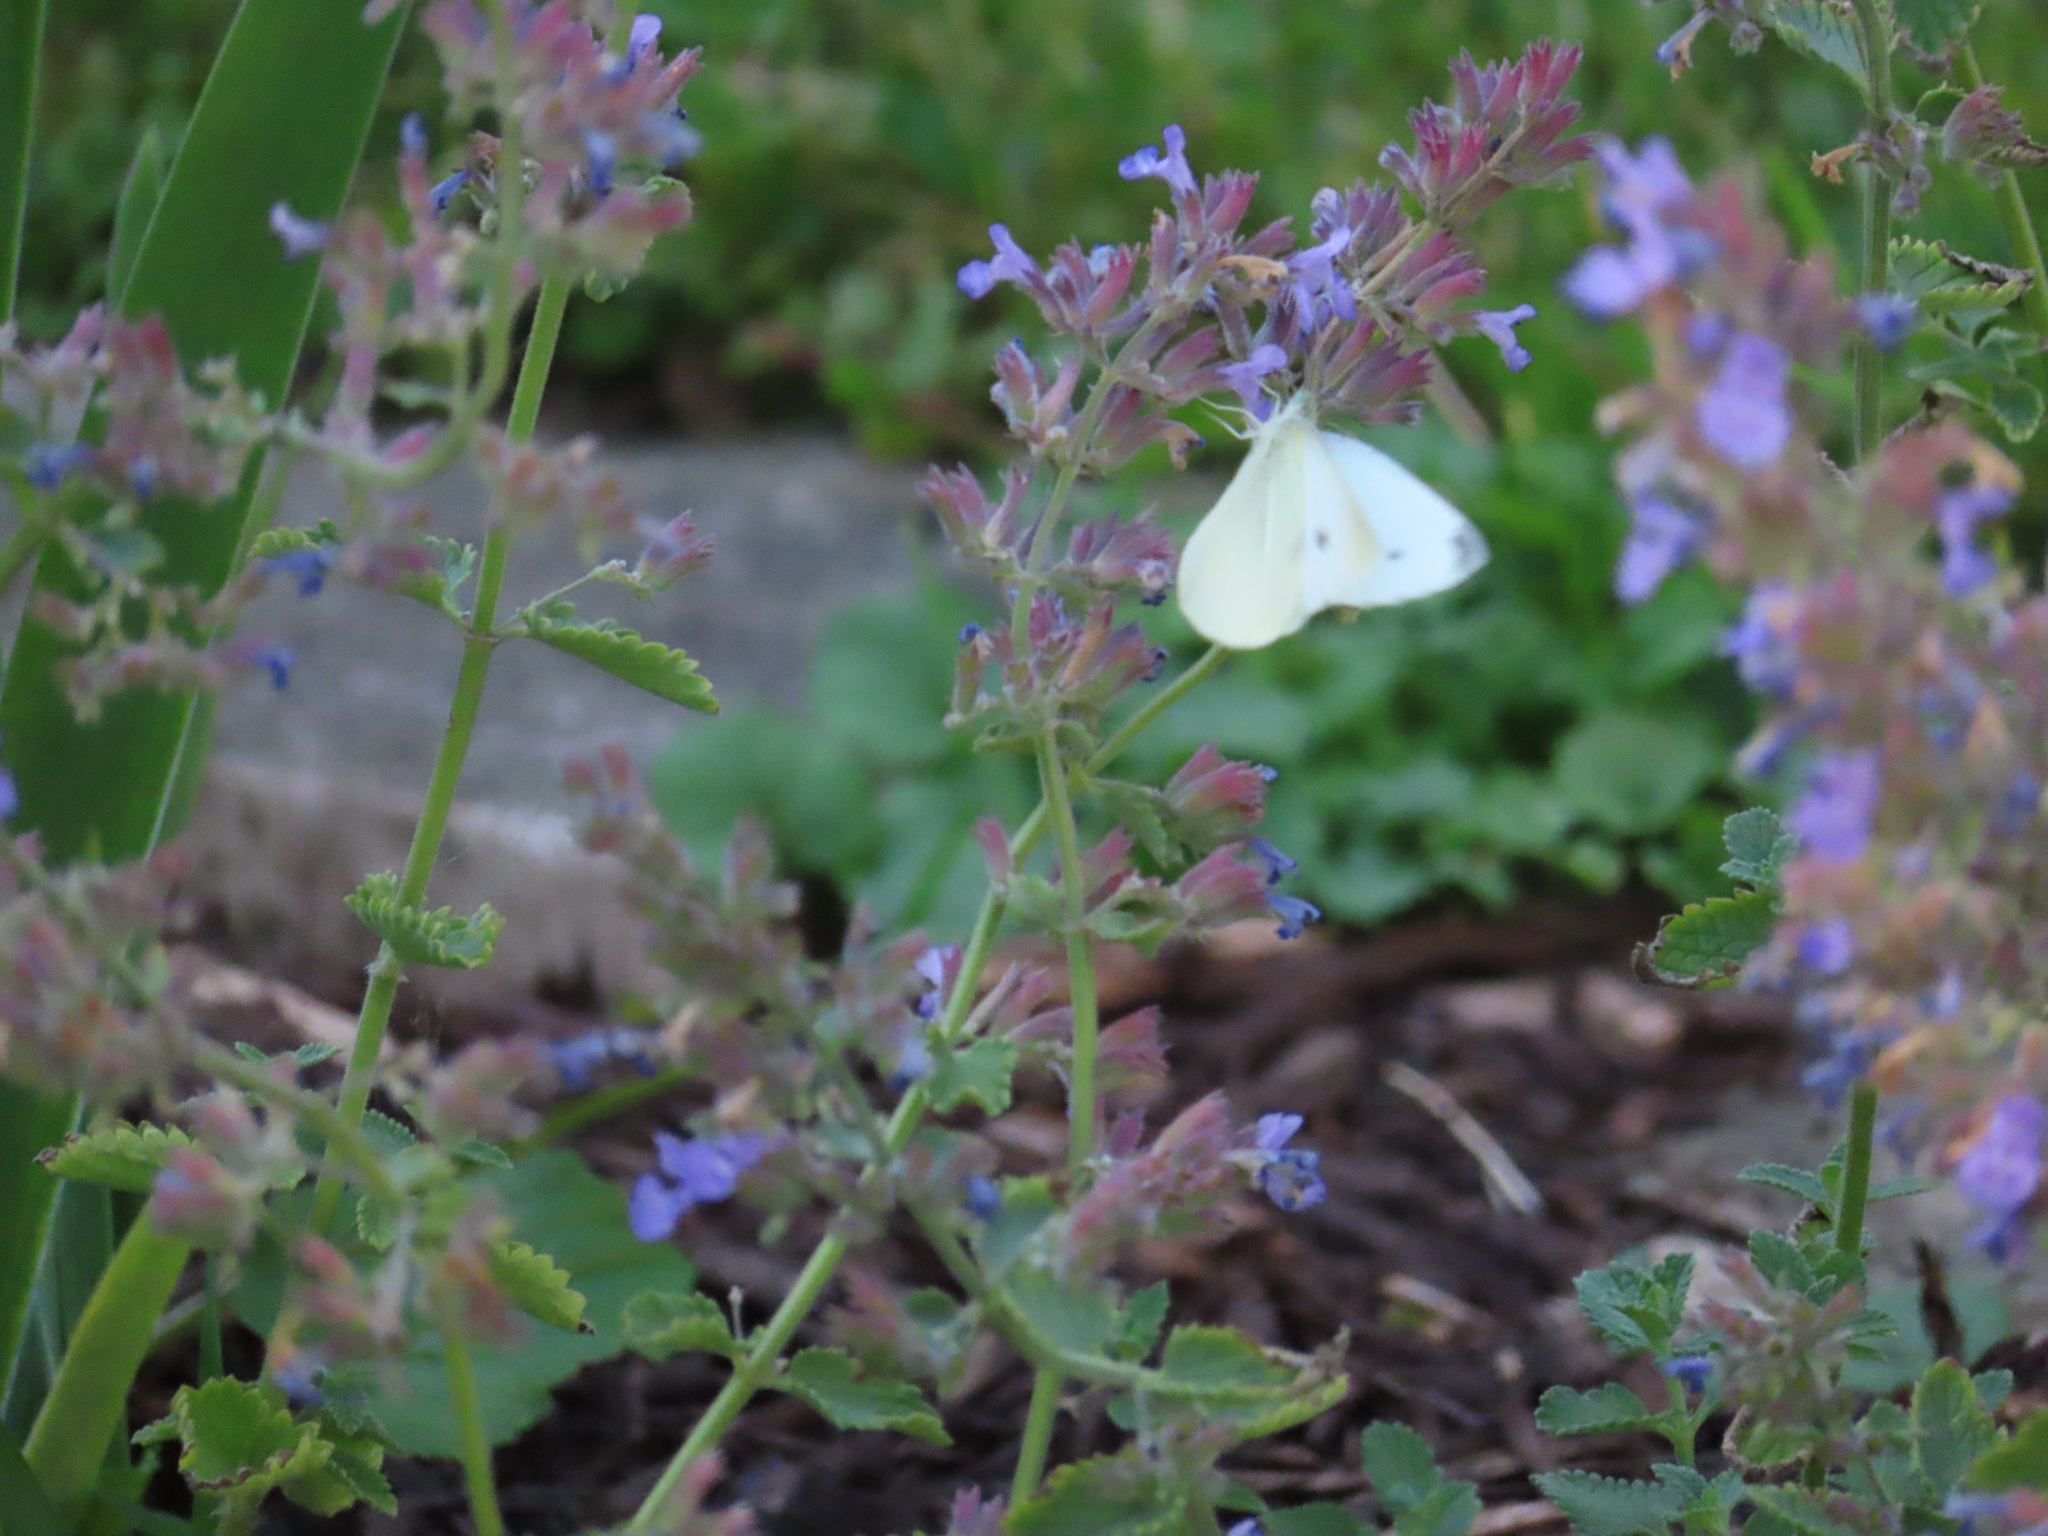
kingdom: Animalia
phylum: Arthropoda
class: Insecta
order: Lepidoptera
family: Pieridae
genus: Pieris
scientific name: Pieris rapae
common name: Small white
